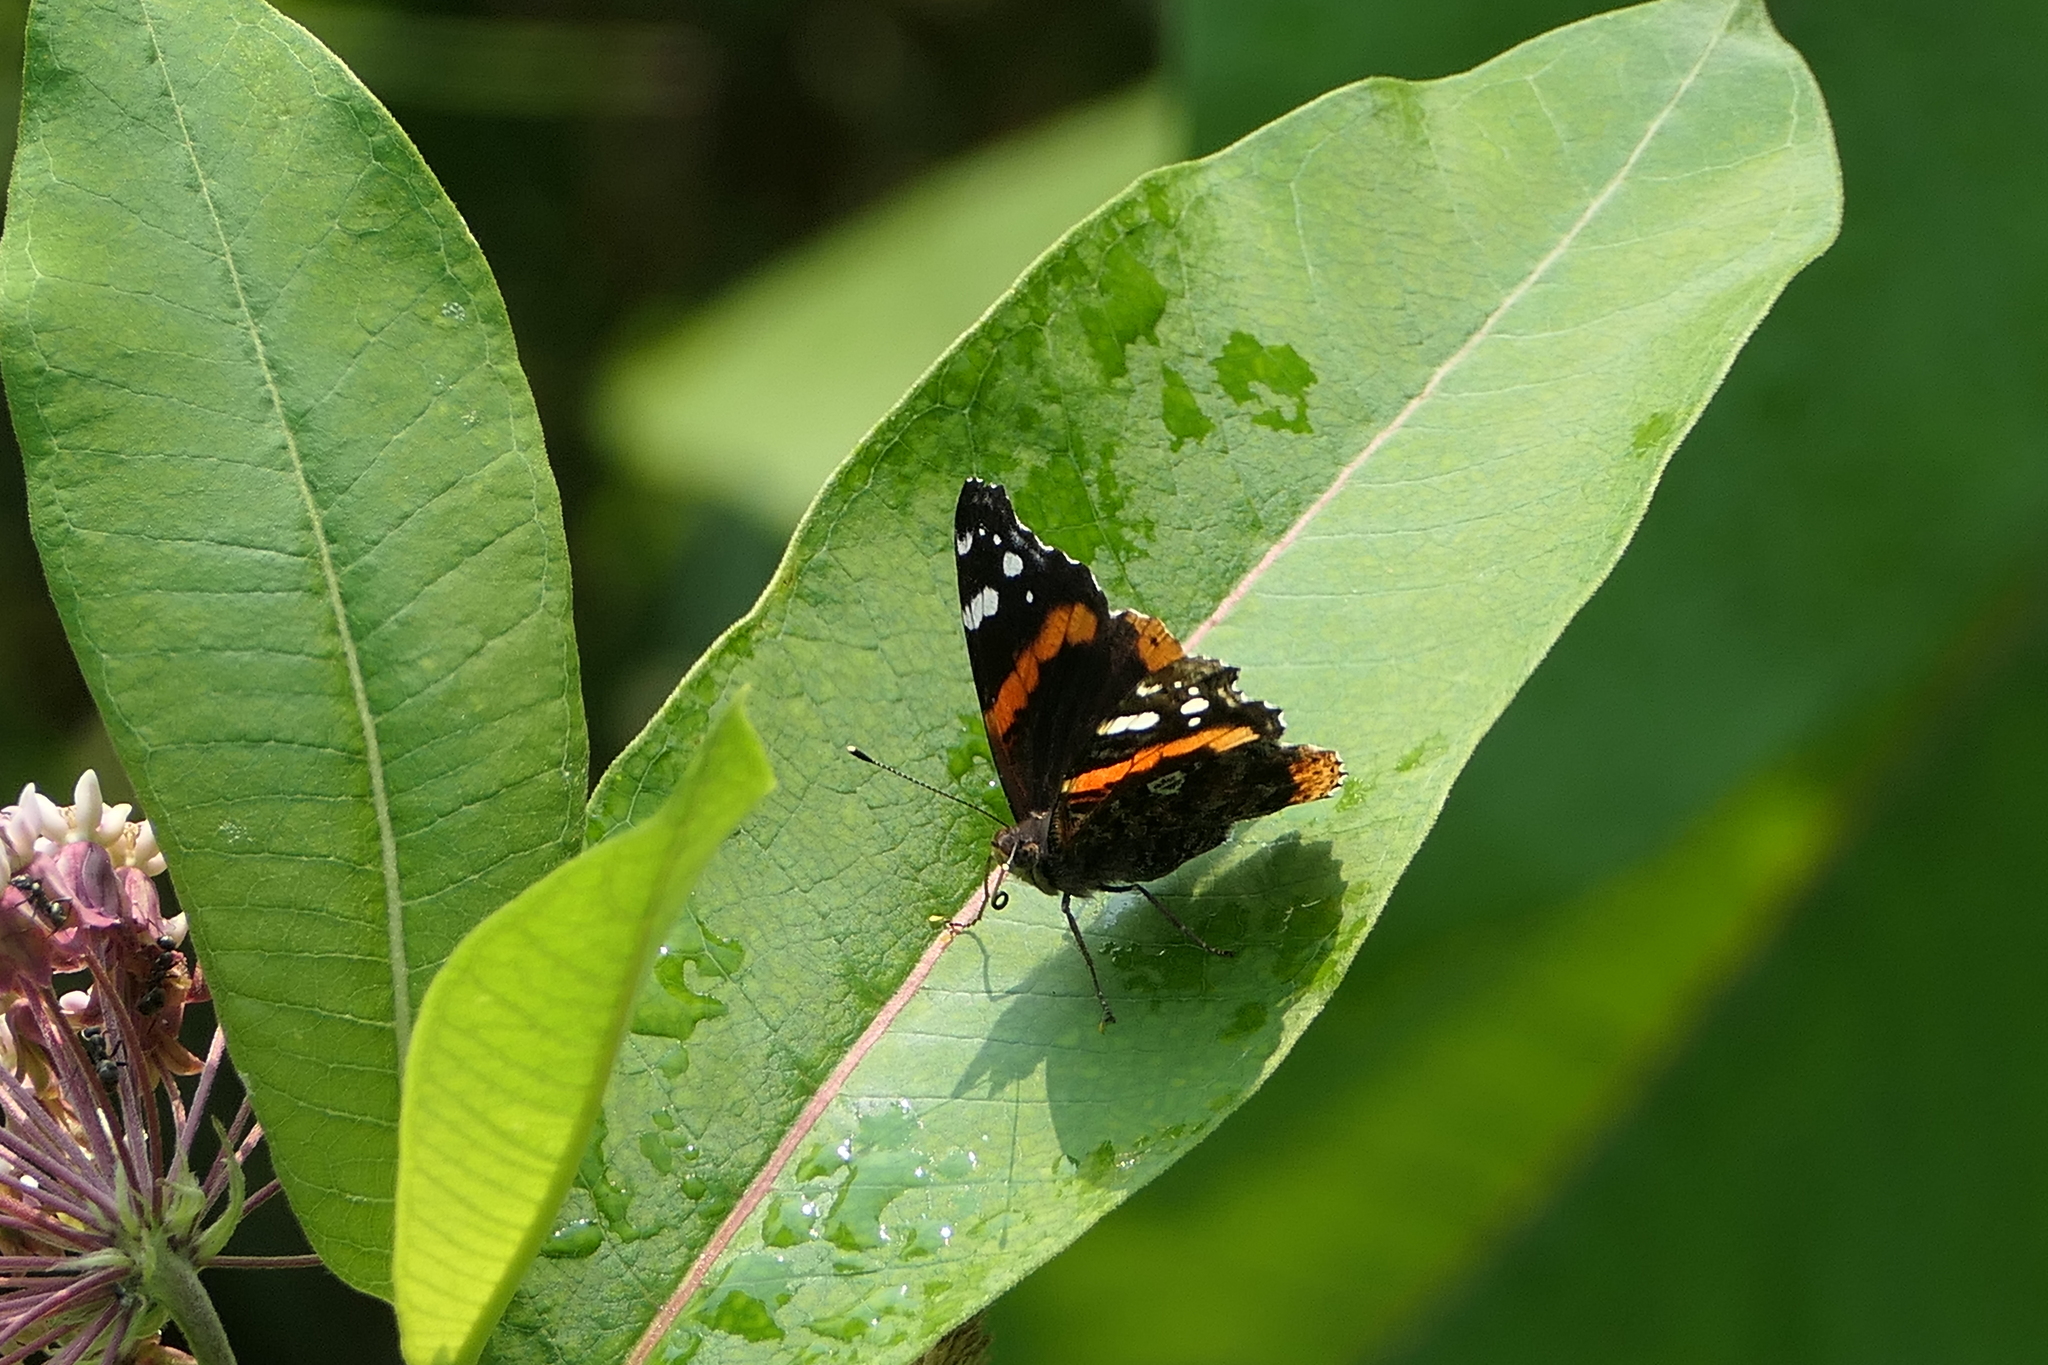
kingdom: Animalia
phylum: Arthropoda
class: Insecta
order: Lepidoptera
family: Nymphalidae
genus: Vanessa
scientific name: Vanessa atalanta
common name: Red admiral
